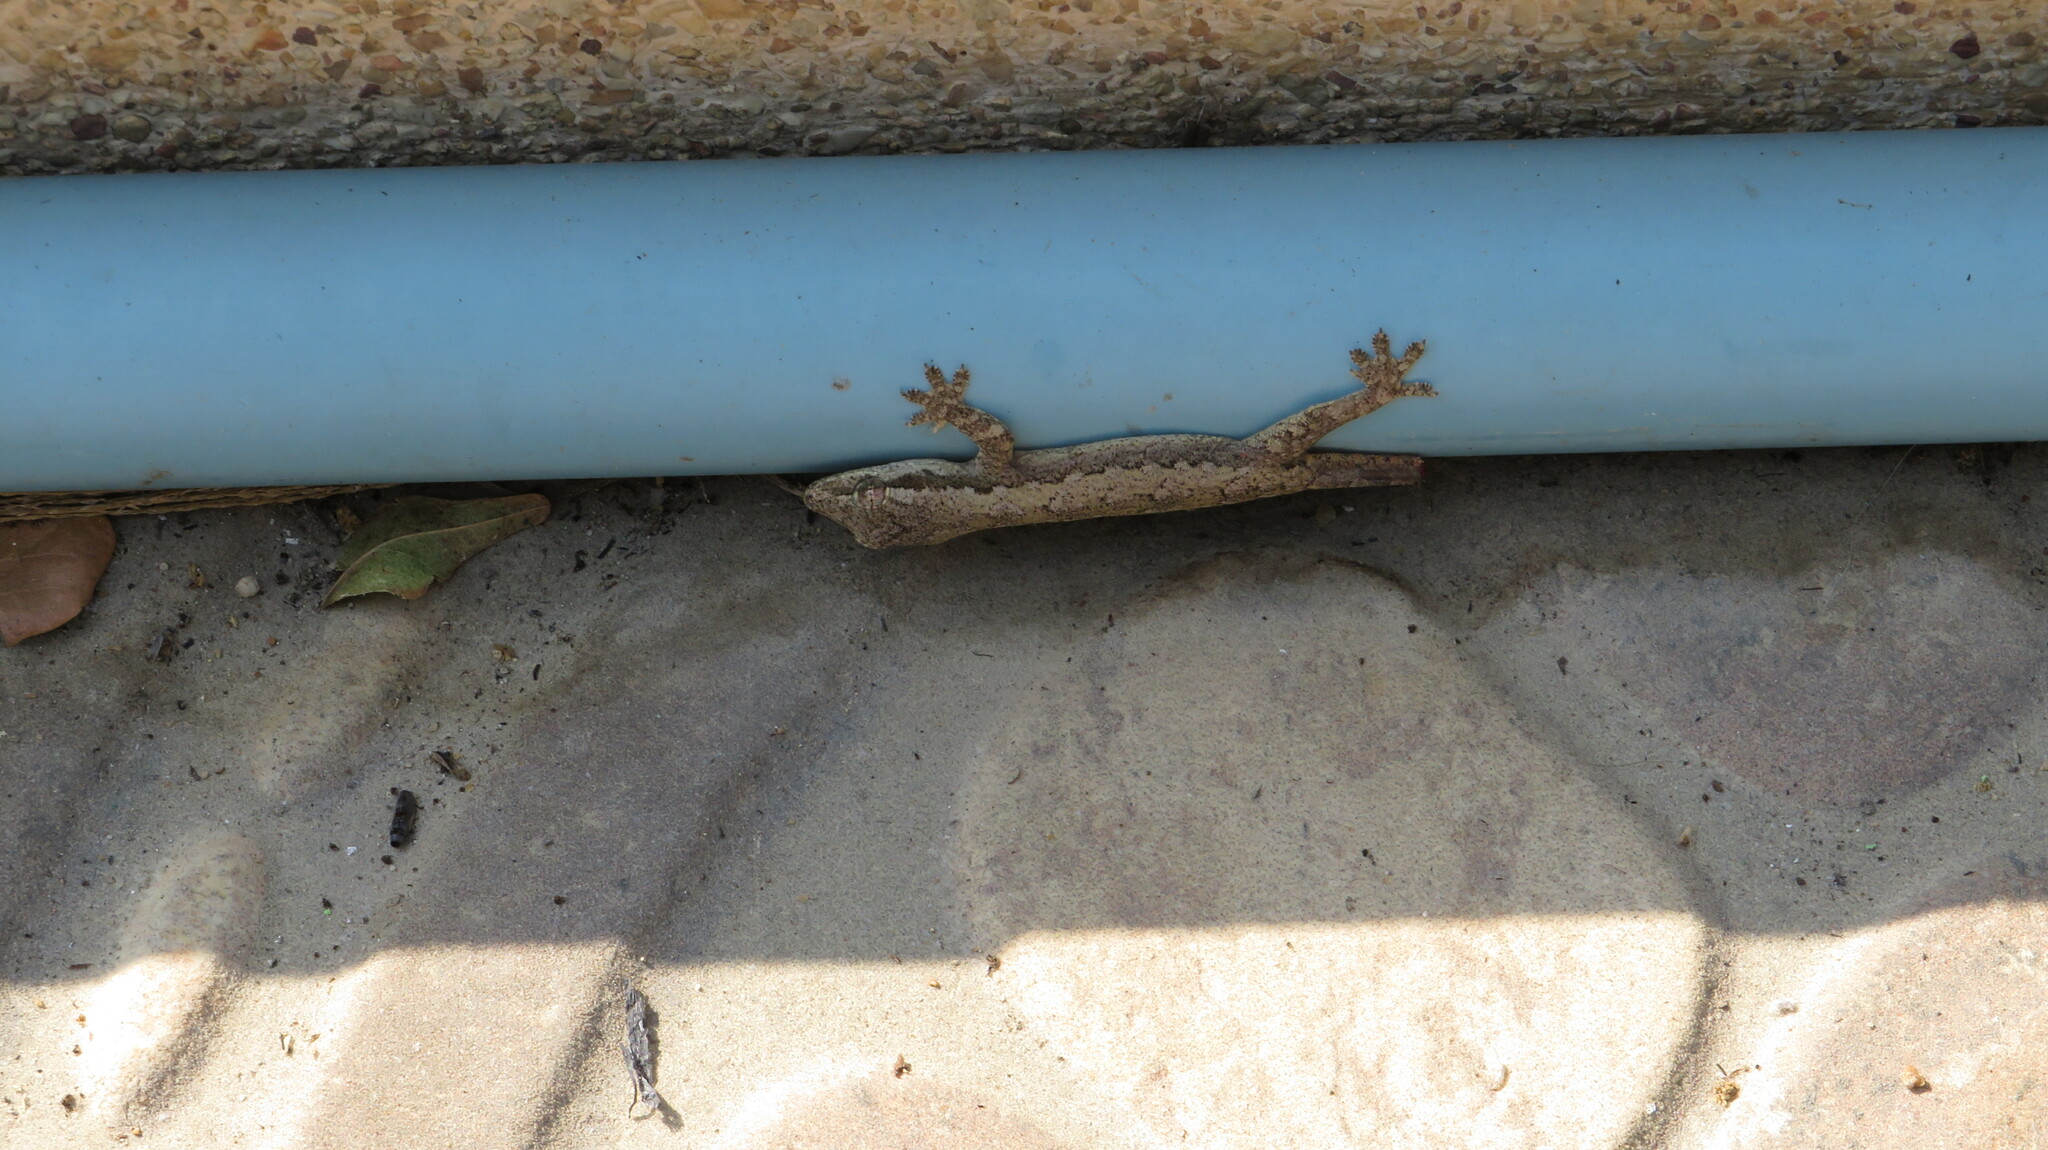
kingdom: Animalia
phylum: Chordata
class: Squamata
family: Gekkonidae
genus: Hemidactylus
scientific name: Hemidactylus platyurus
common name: Flat-tailed house gecko
